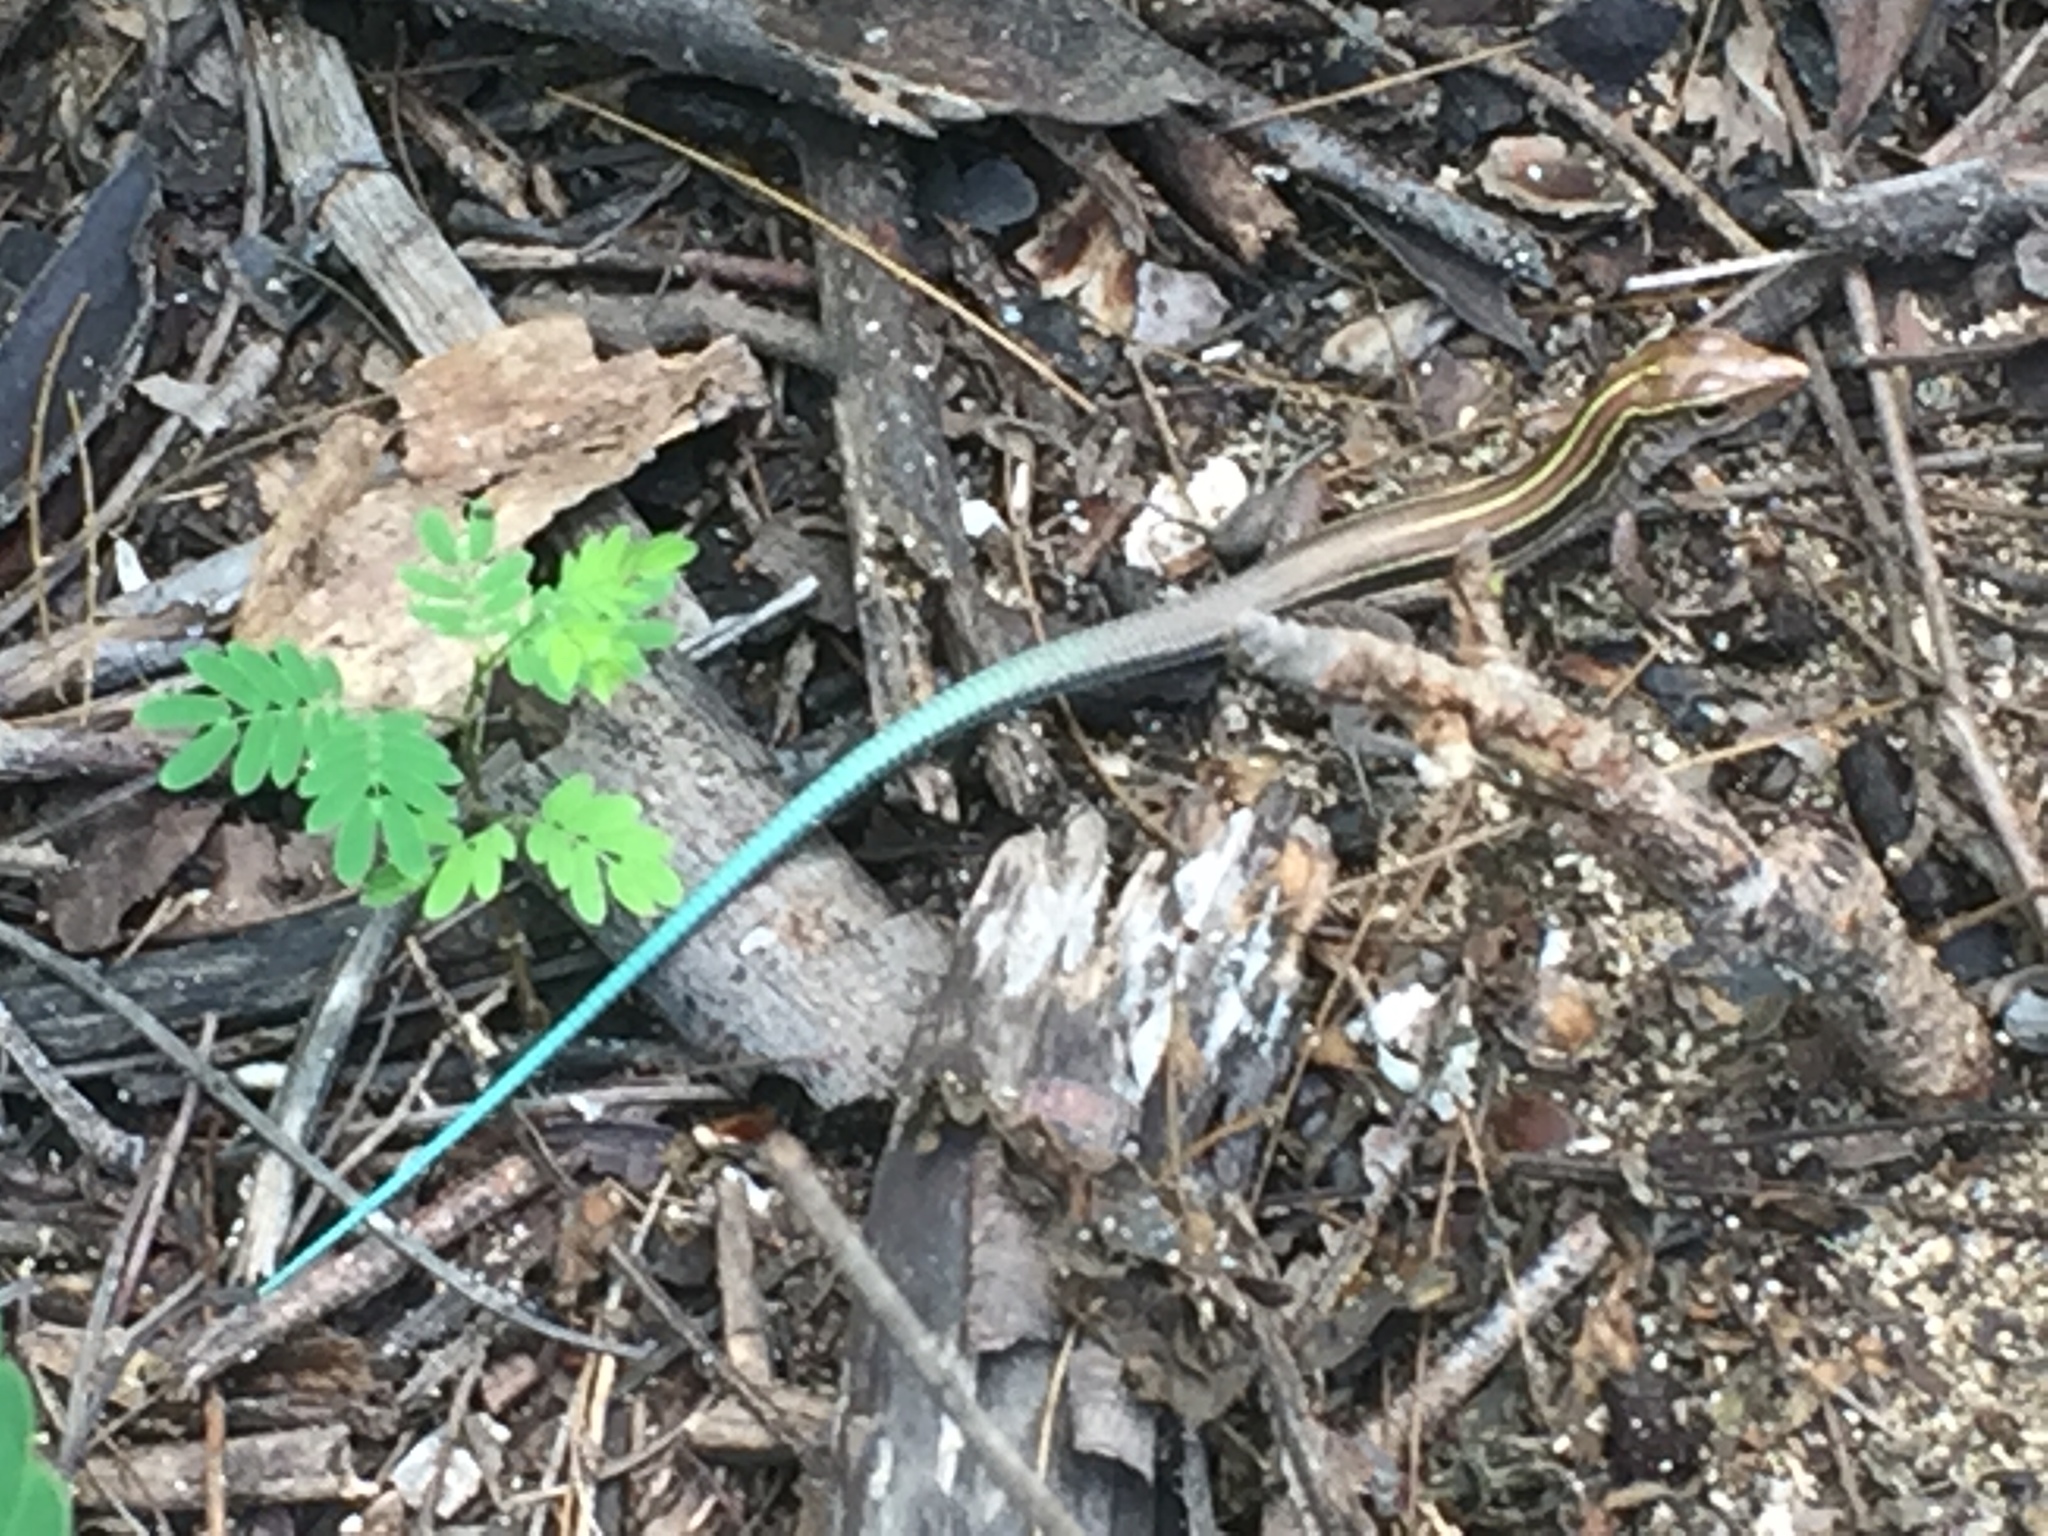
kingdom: Animalia
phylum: Chordata
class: Squamata
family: Teiidae
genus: Pholidoscelis
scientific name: Pholidoscelis auberi
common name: Auber's ameiva
